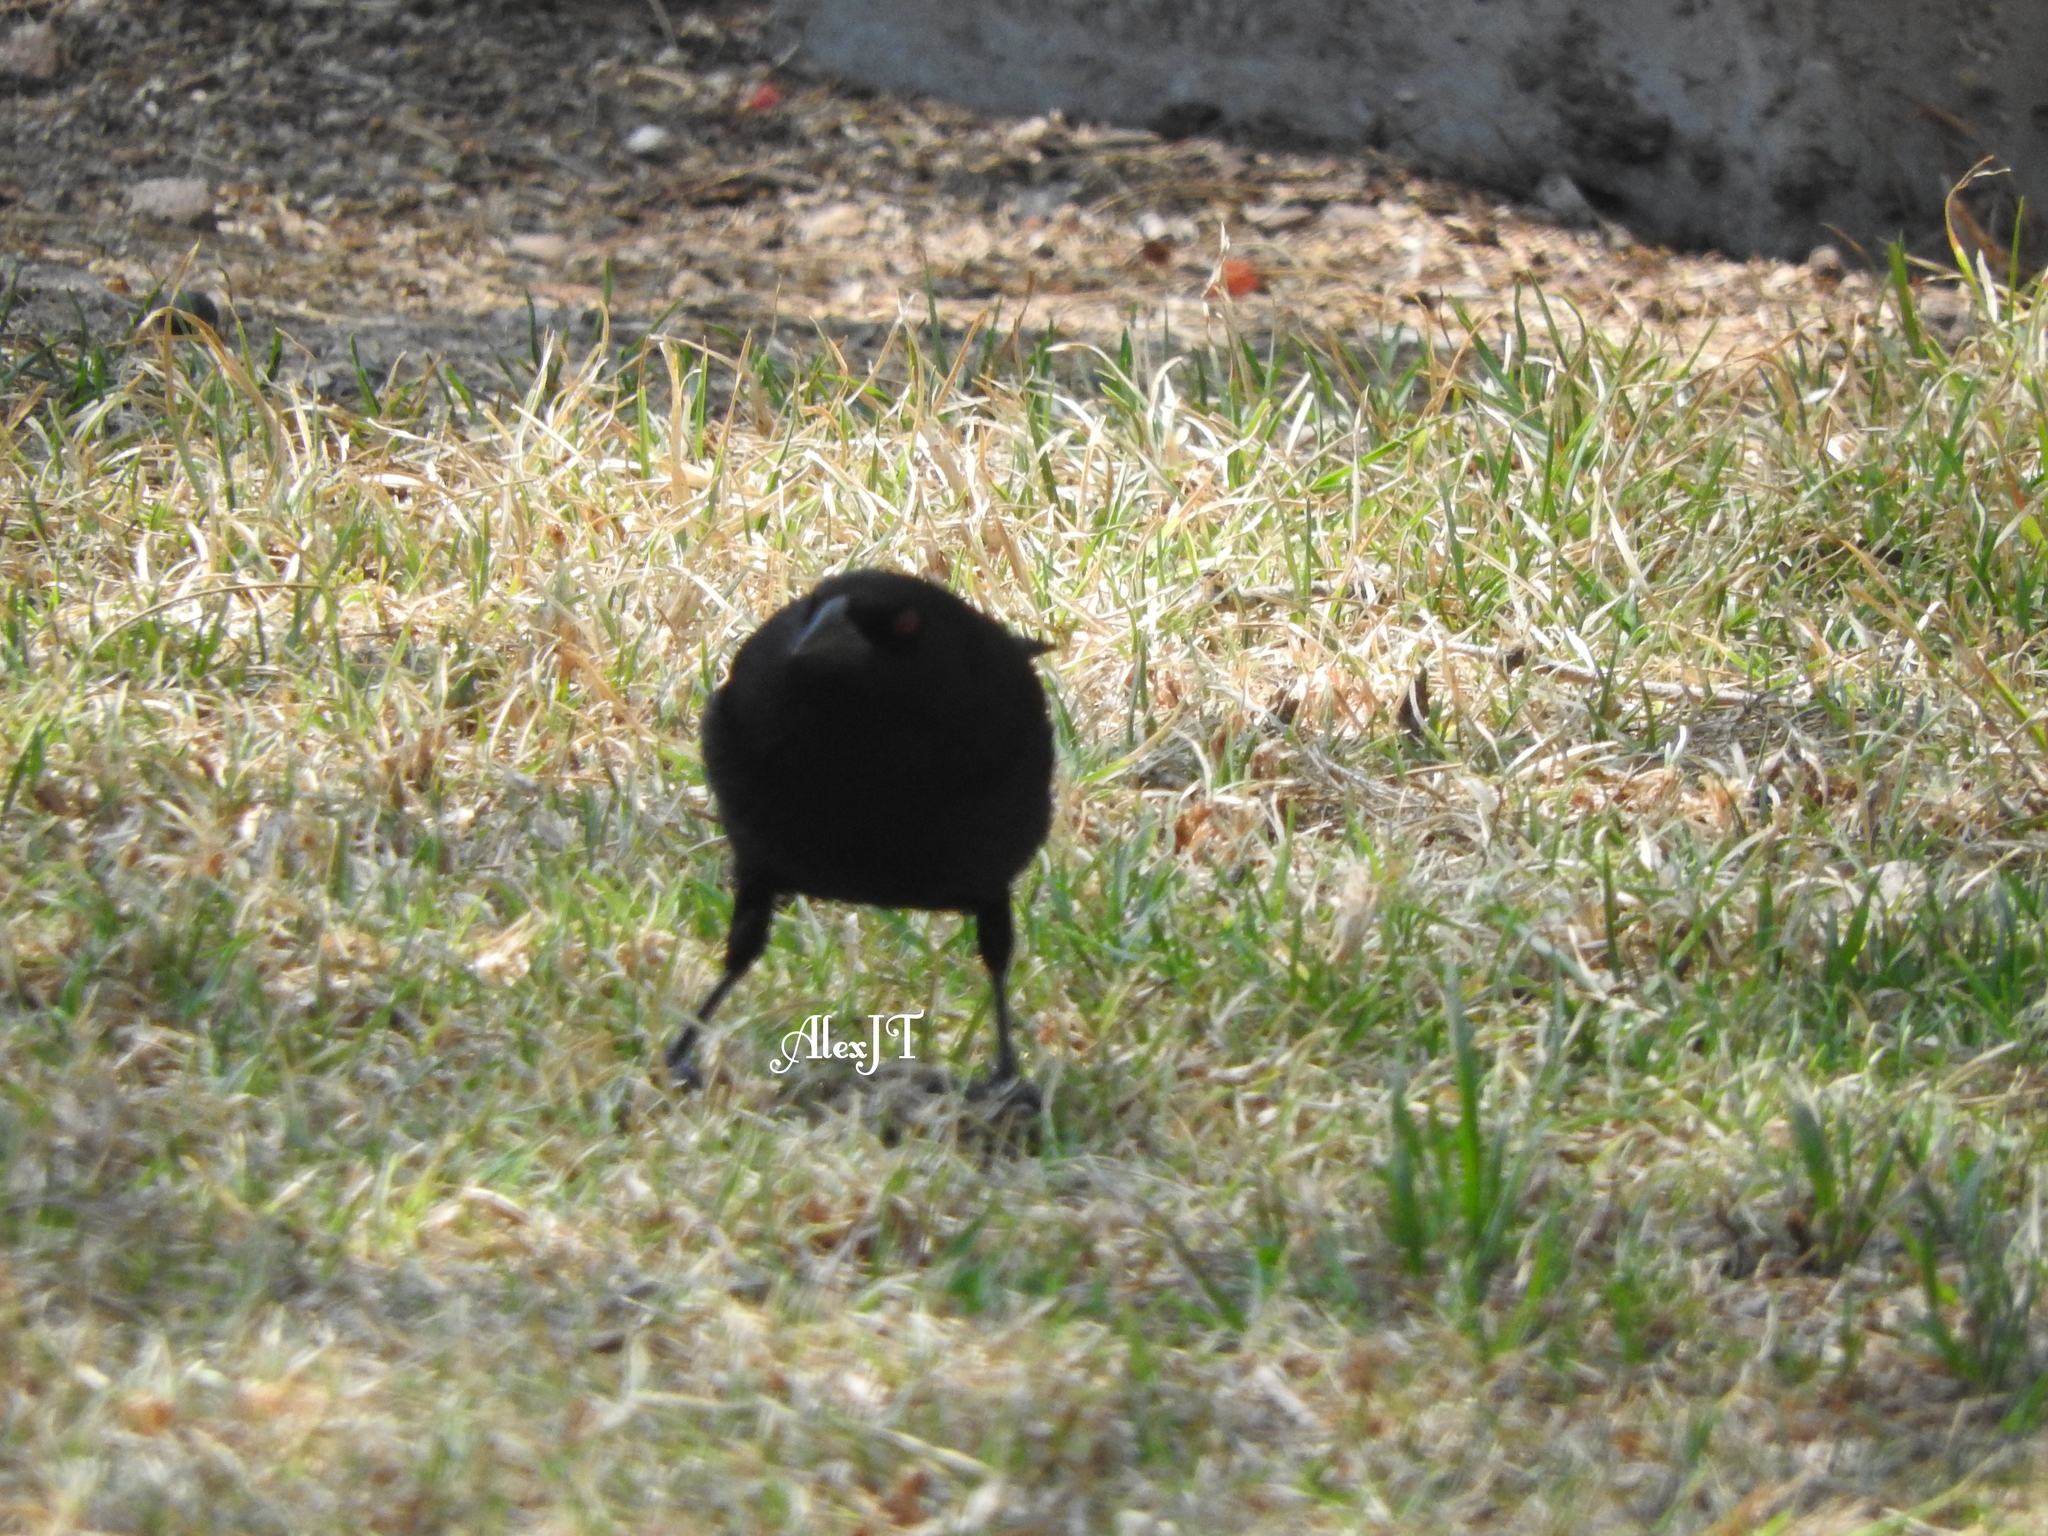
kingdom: Animalia
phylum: Chordata
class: Aves
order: Passeriformes
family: Icteridae
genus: Molothrus
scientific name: Molothrus aeneus
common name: Bronzed cowbird
